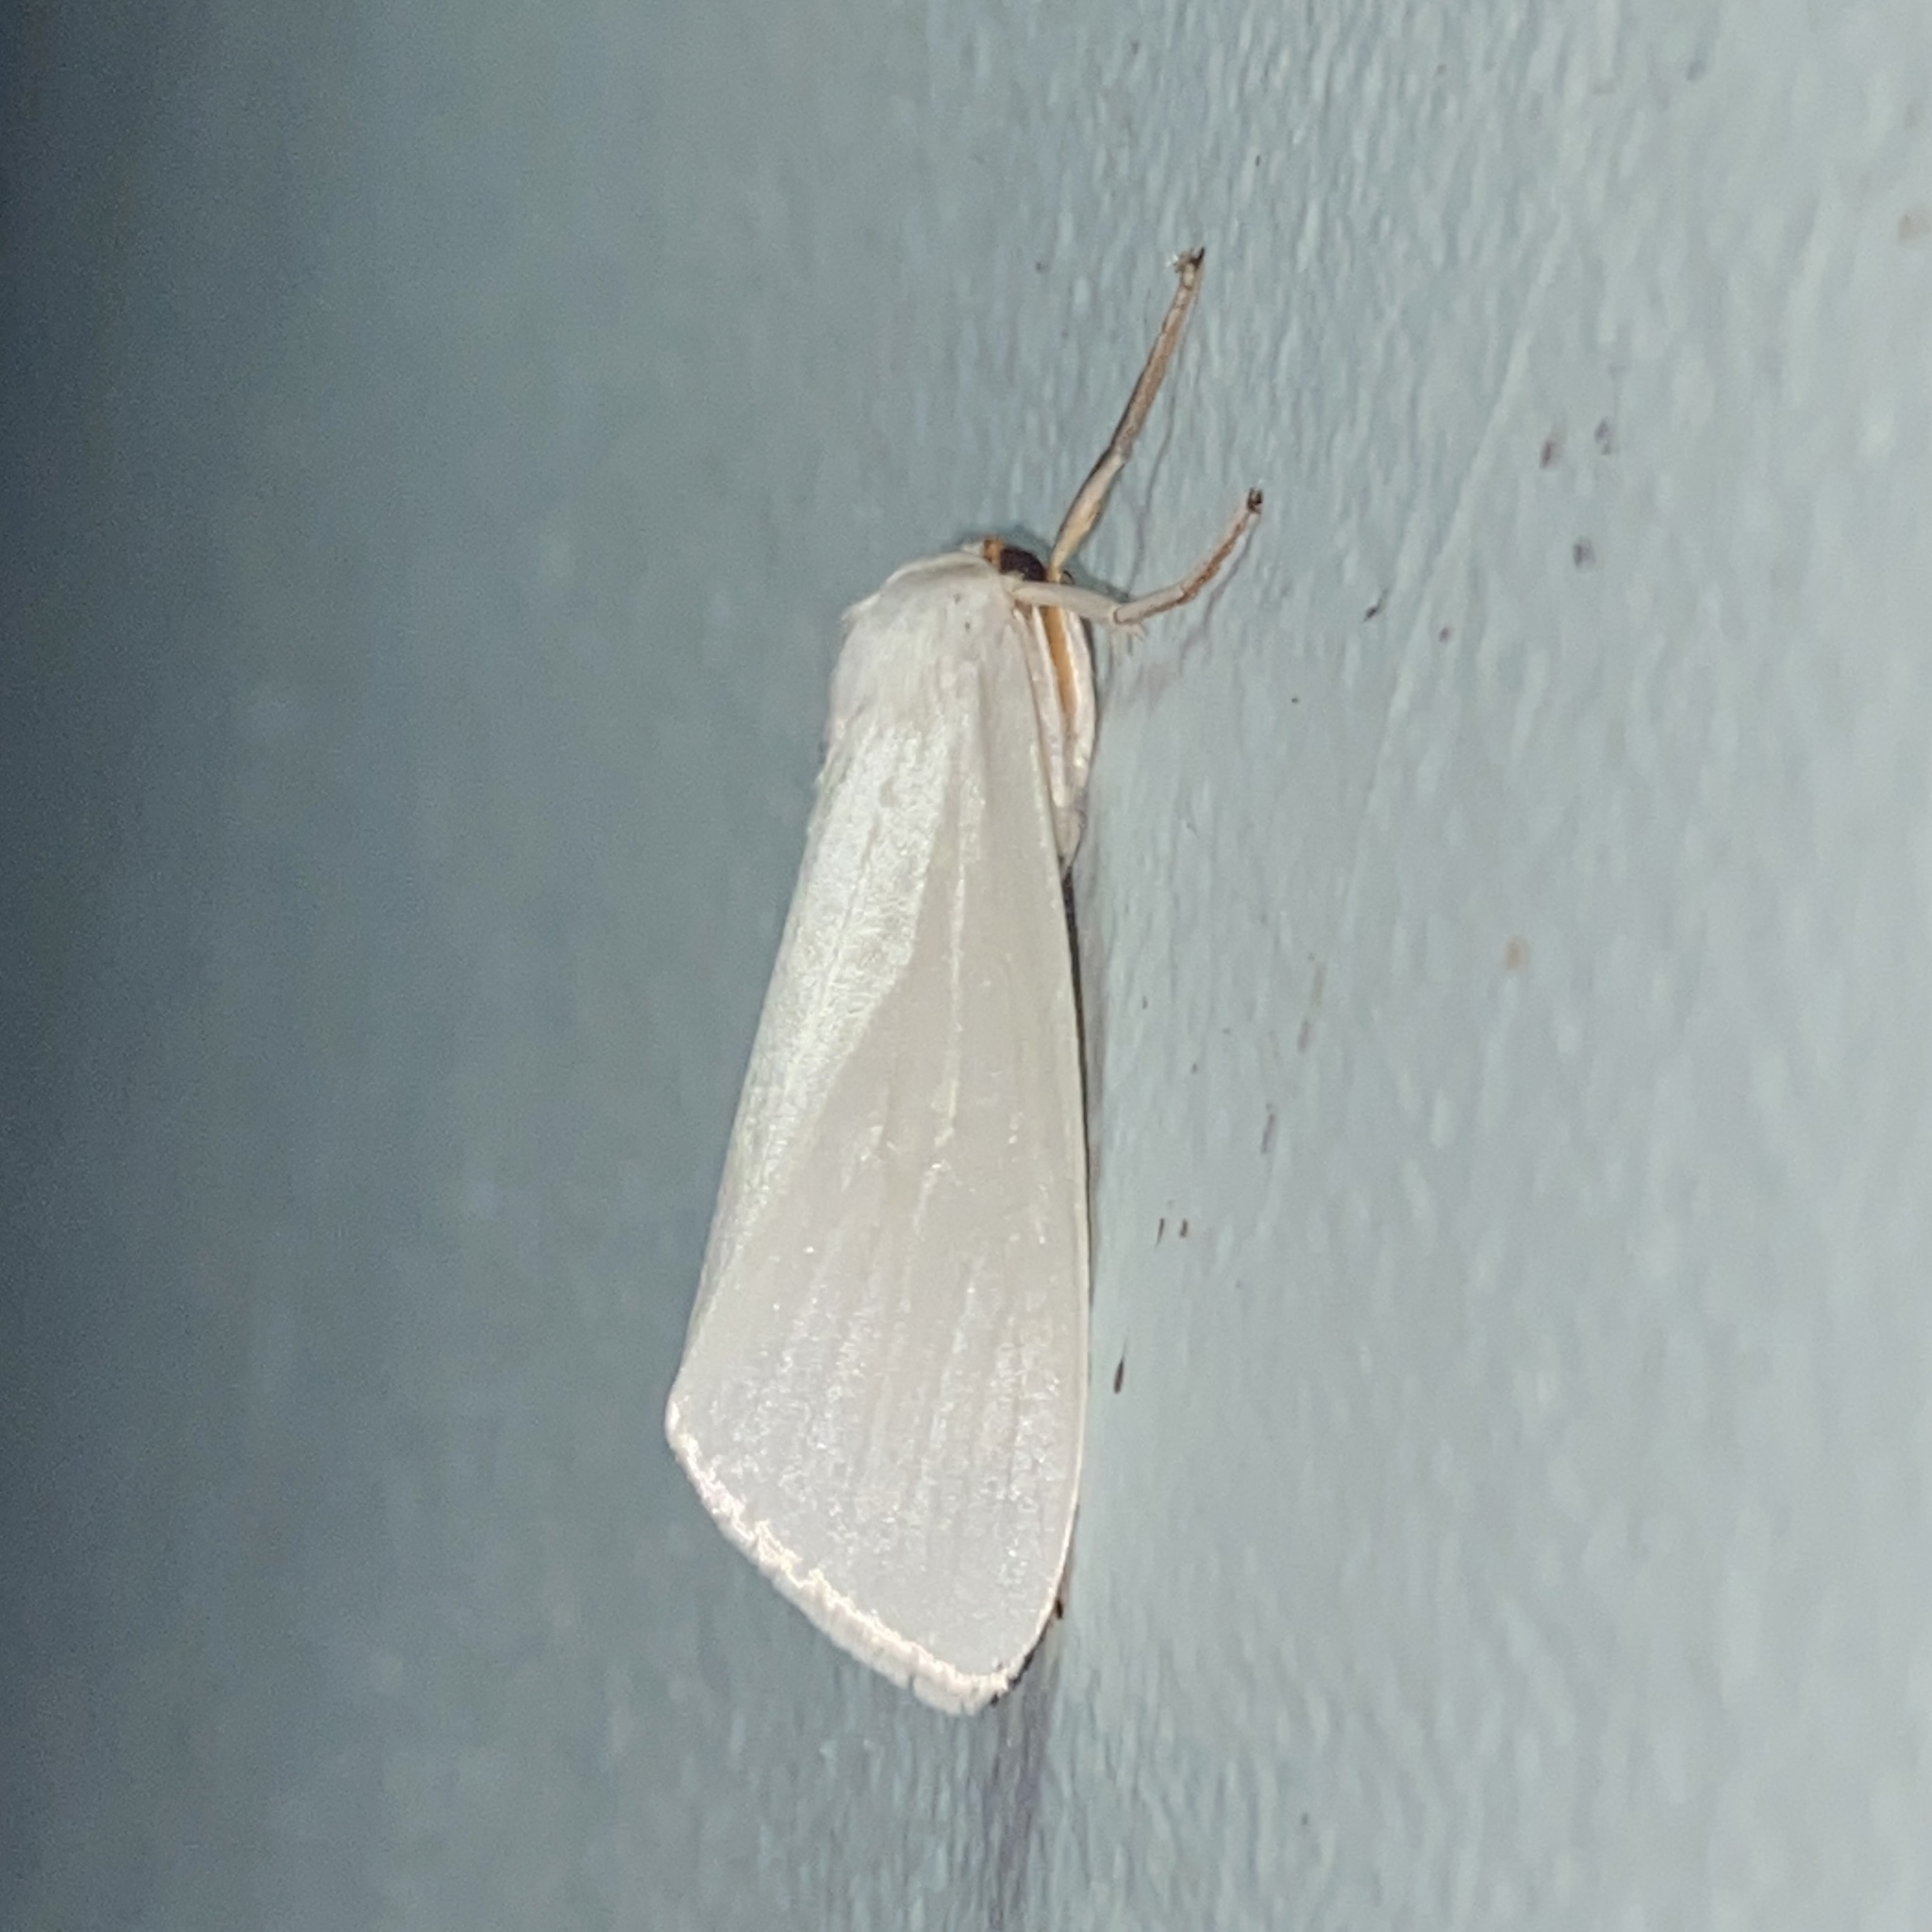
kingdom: Animalia
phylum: Arthropoda
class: Insecta
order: Lepidoptera
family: Erebidae
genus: Agylla
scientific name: Agylla argentifera
